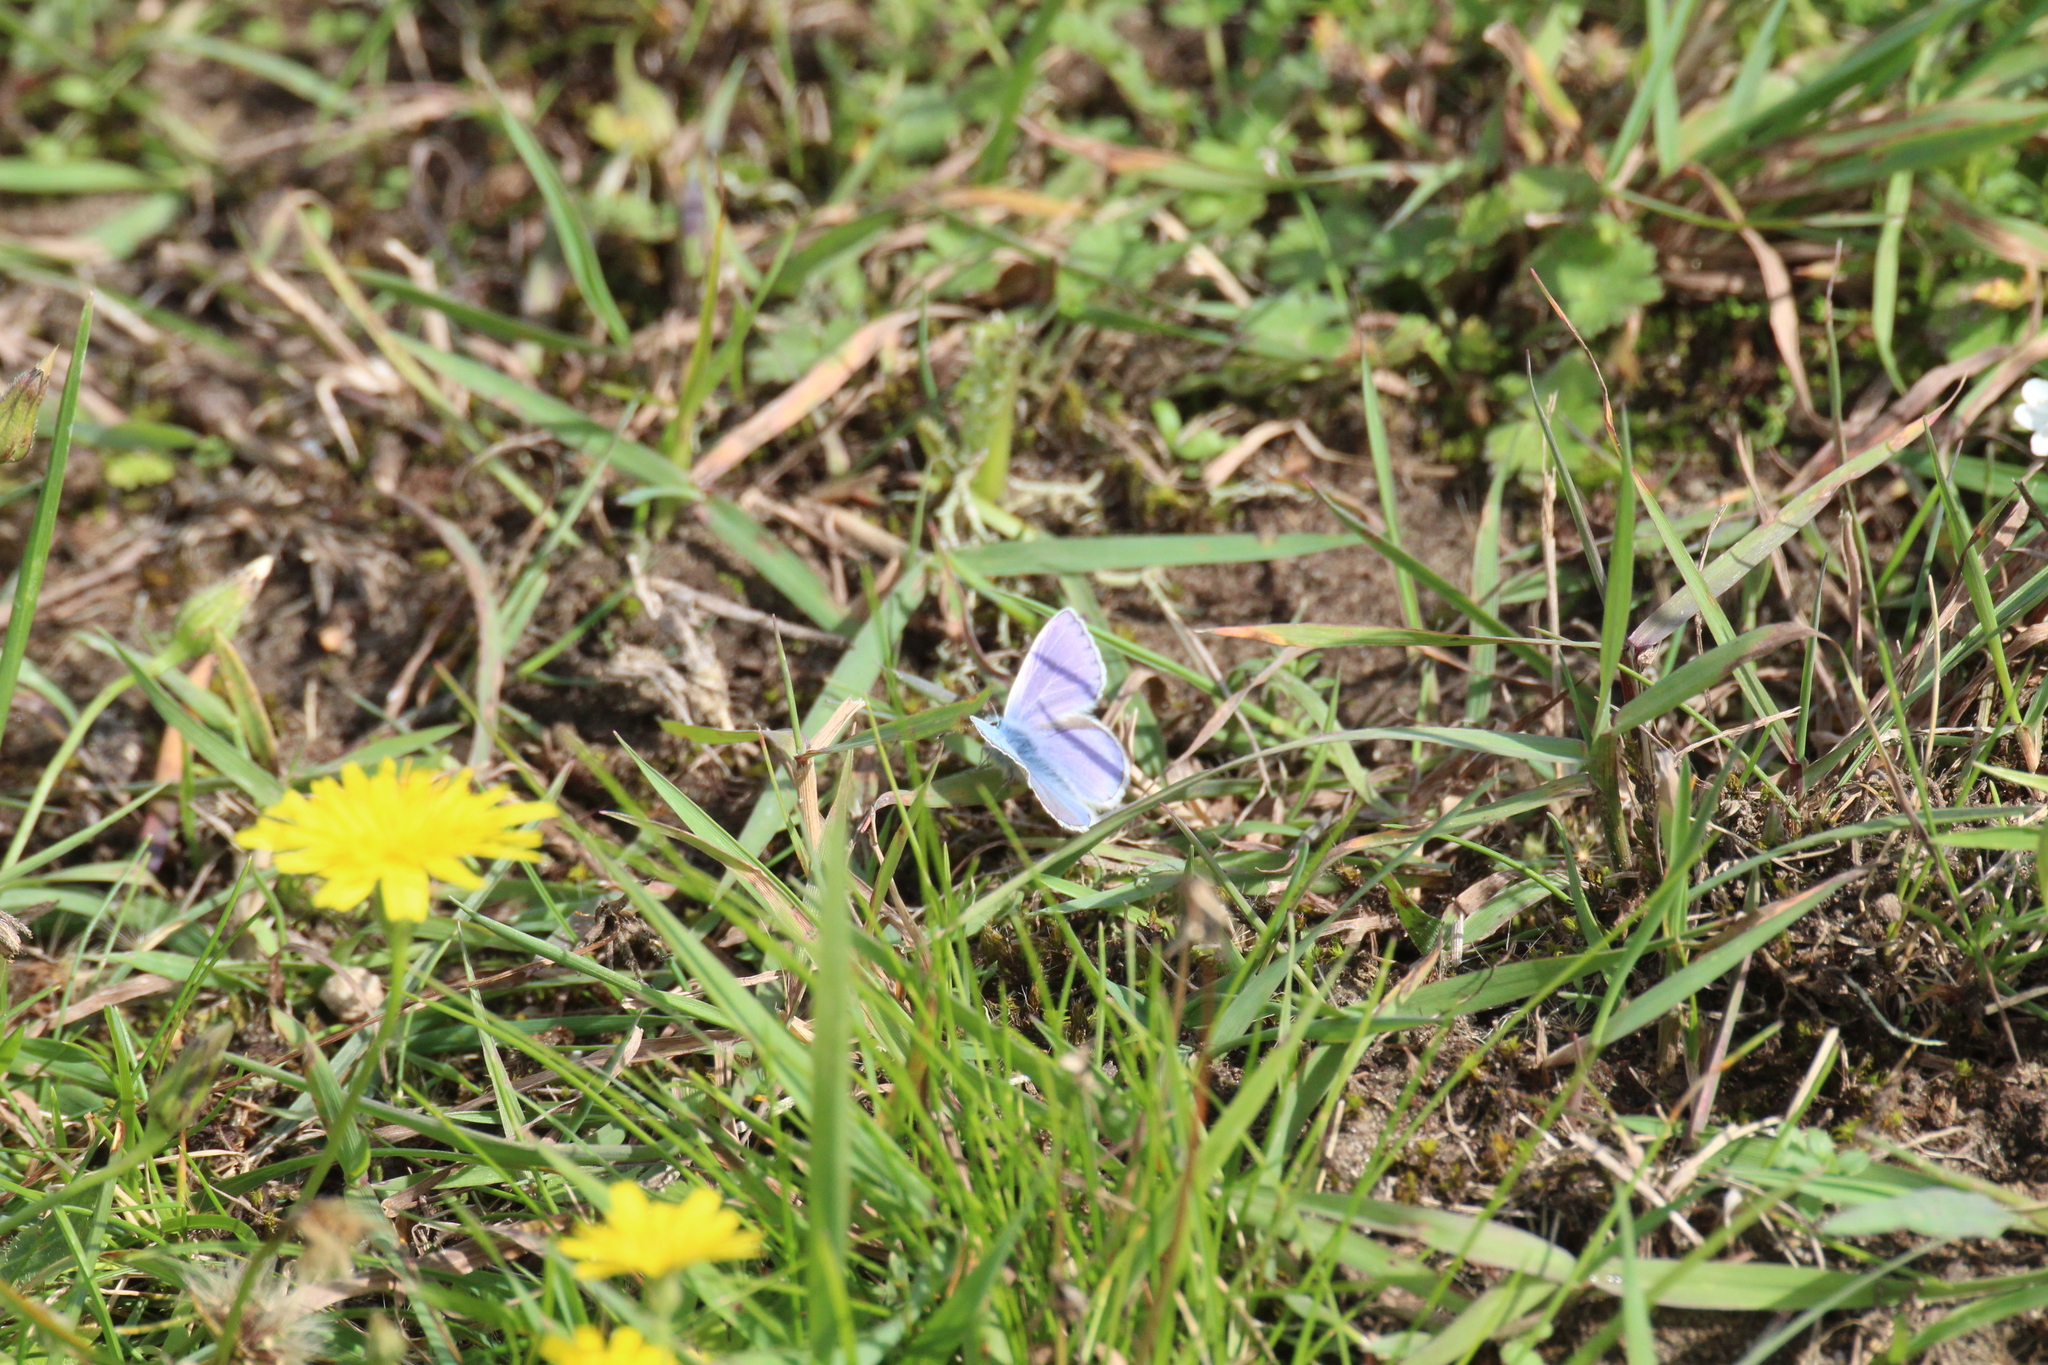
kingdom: Animalia
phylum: Arthropoda
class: Insecta
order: Lepidoptera
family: Lycaenidae
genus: Polyommatus
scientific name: Polyommatus icarus
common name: Common blue
